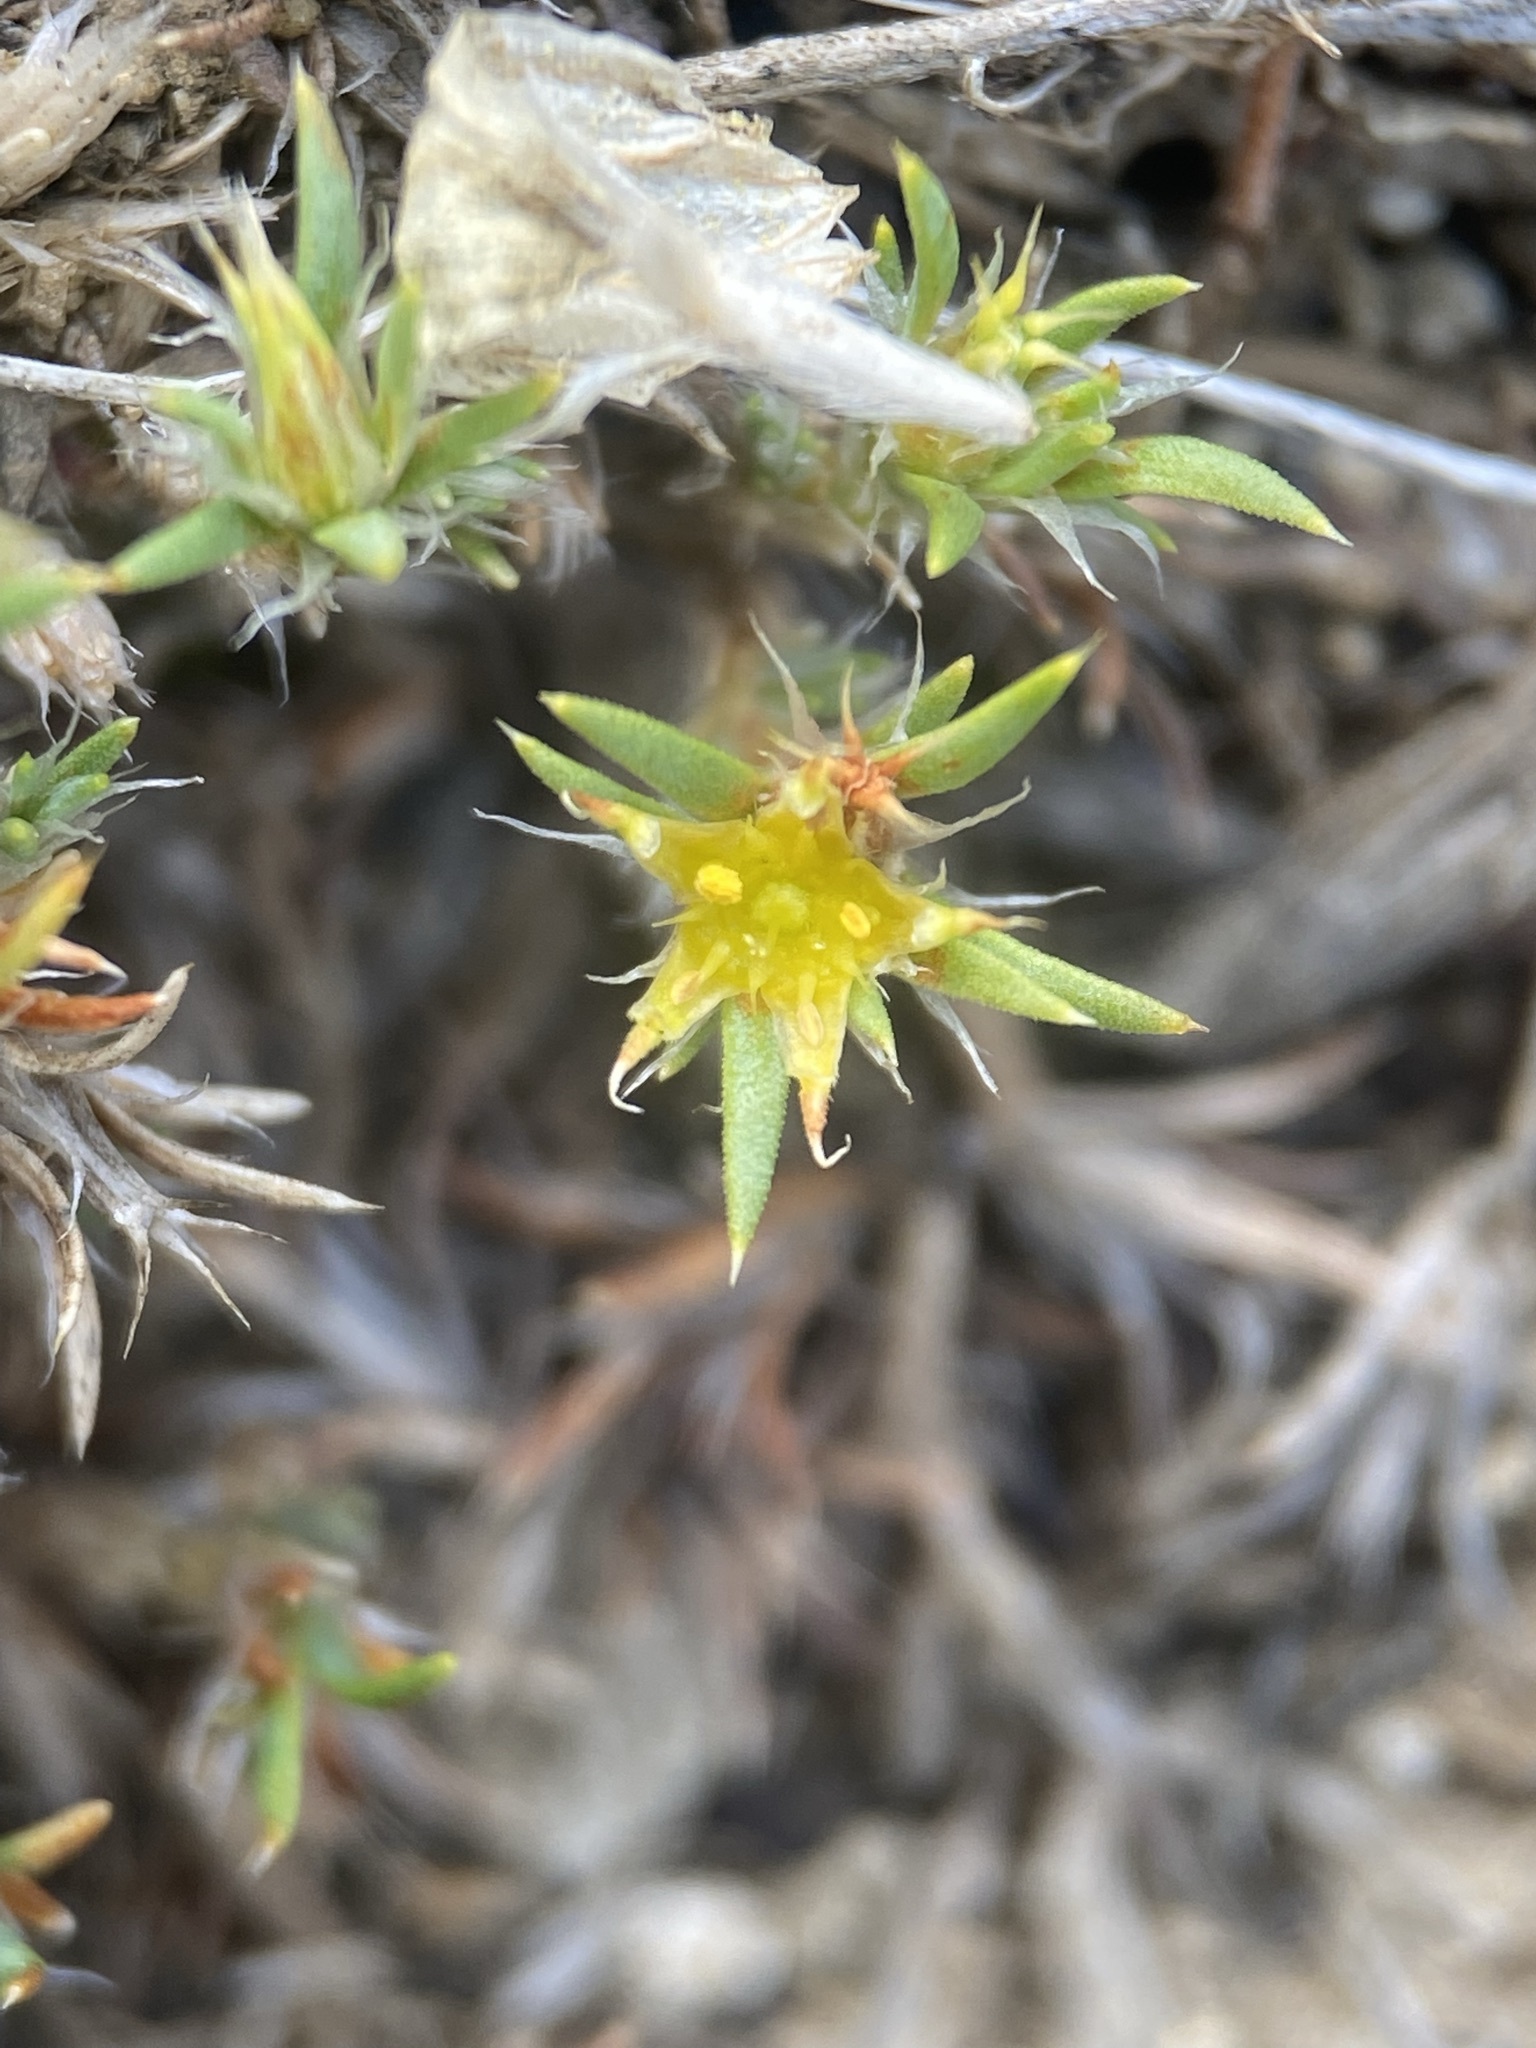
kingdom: Plantae
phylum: Tracheophyta
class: Magnoliopsida
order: Caryophyllales
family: Caryophyllaceae
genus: Paronychia
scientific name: Paronychia sessiliflora
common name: Creeping nailwort
